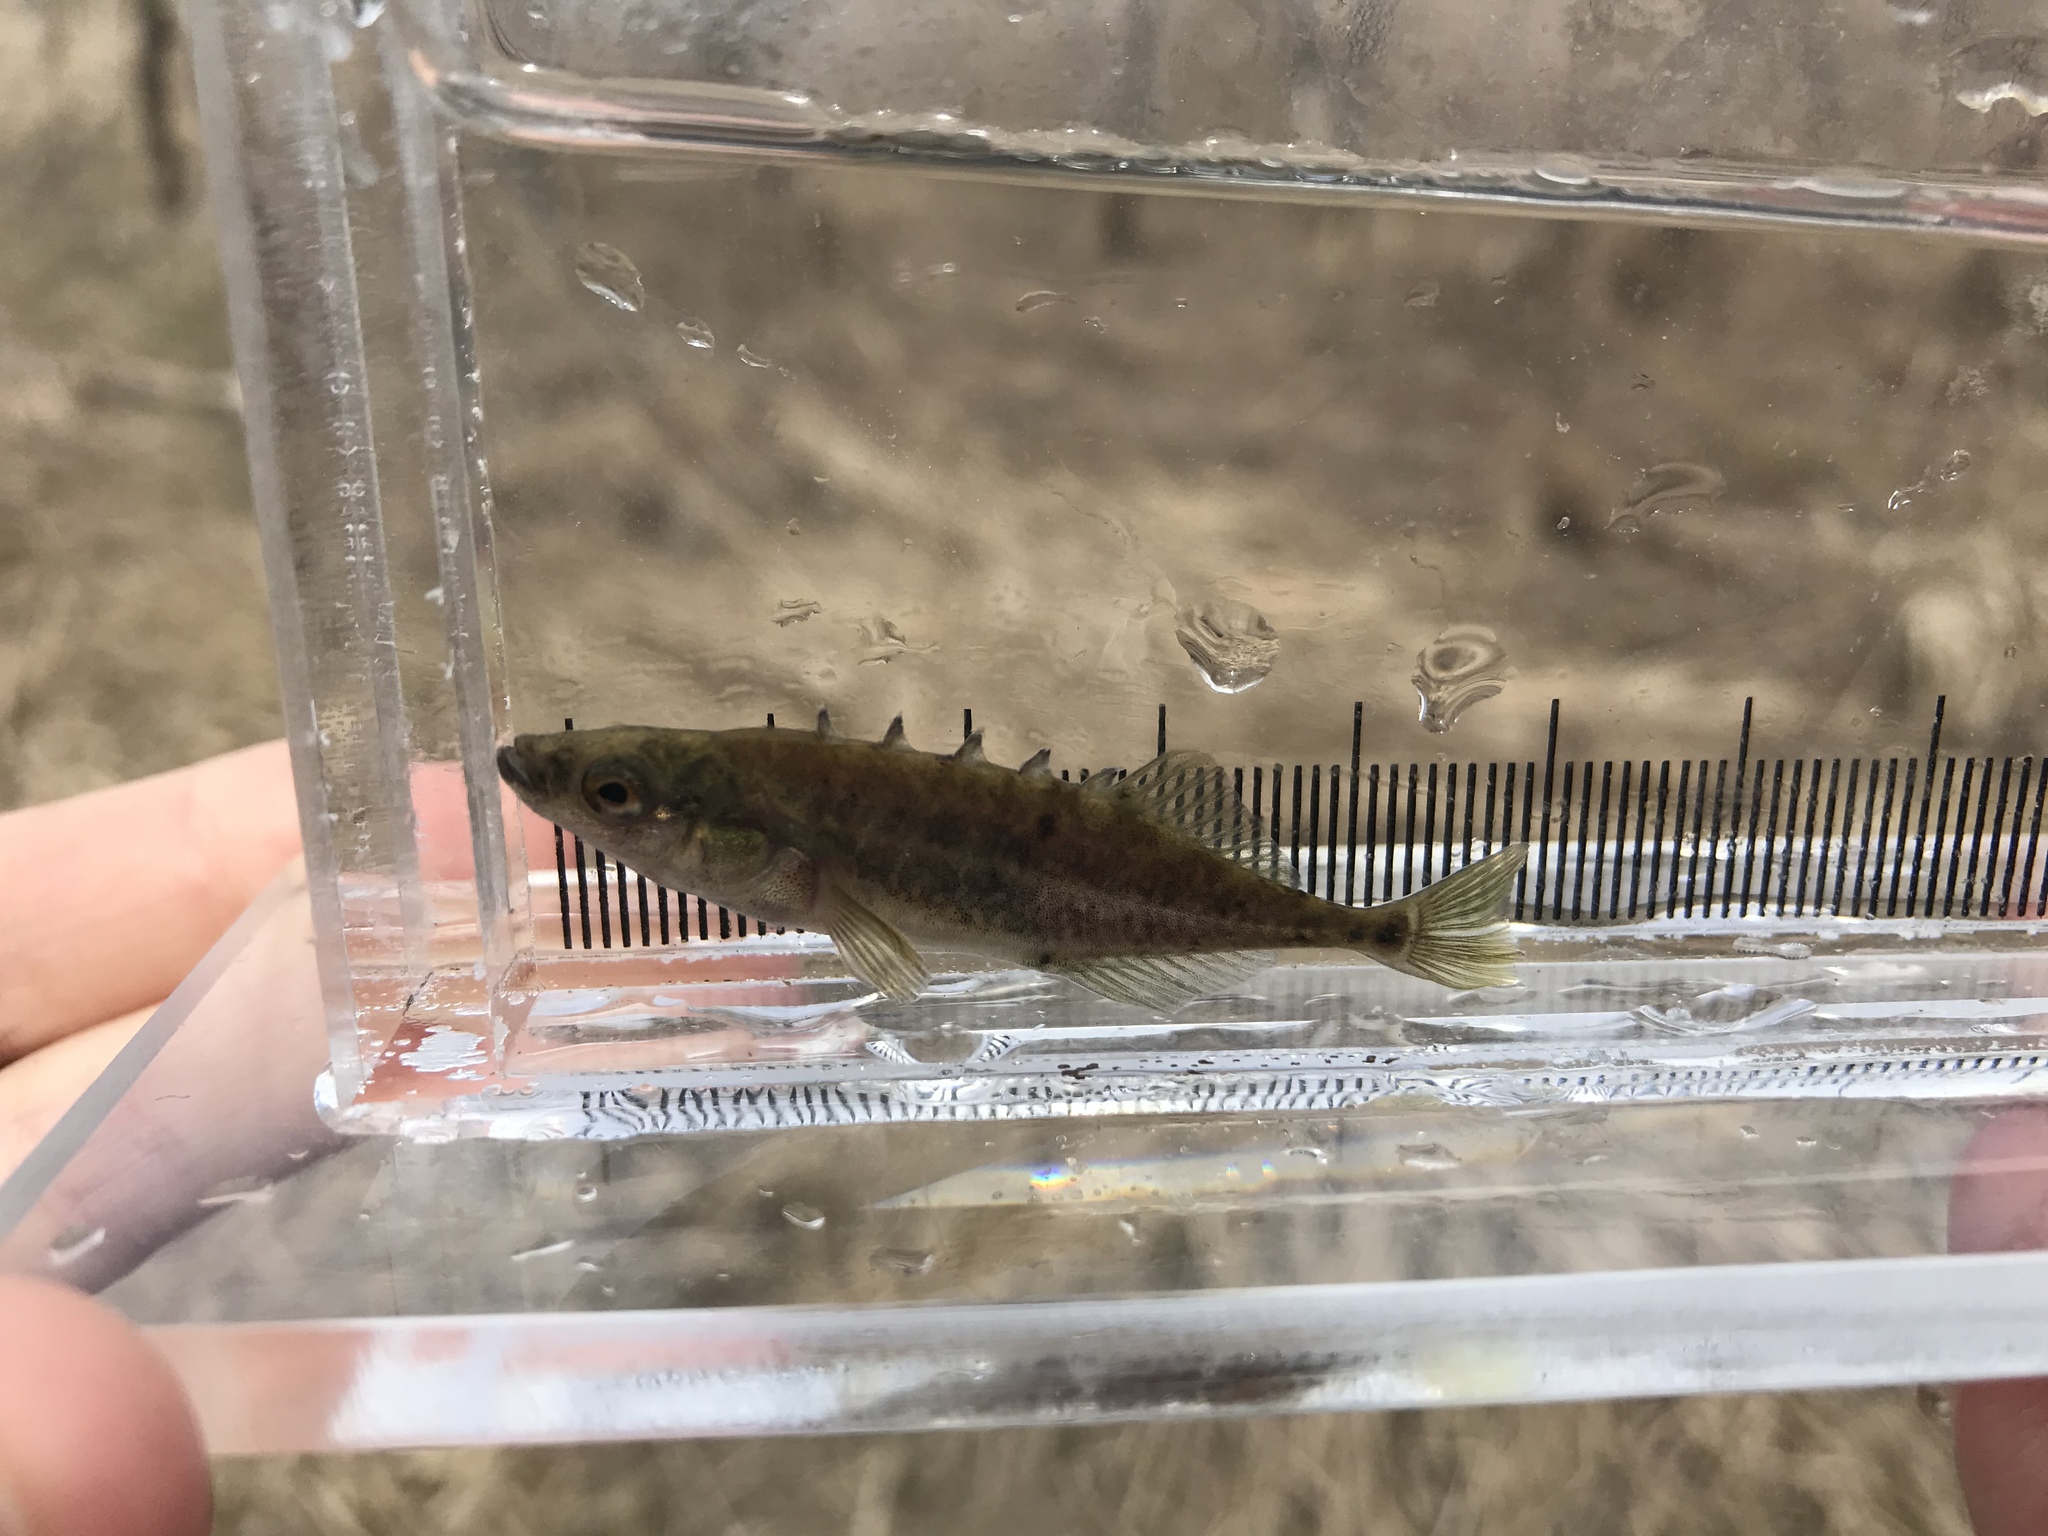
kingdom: Animalia
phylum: Chordata
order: Gasterosteiformes
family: Gasterosteidae
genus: Culaea
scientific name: Culaea inconstans
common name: Brook stickleback
